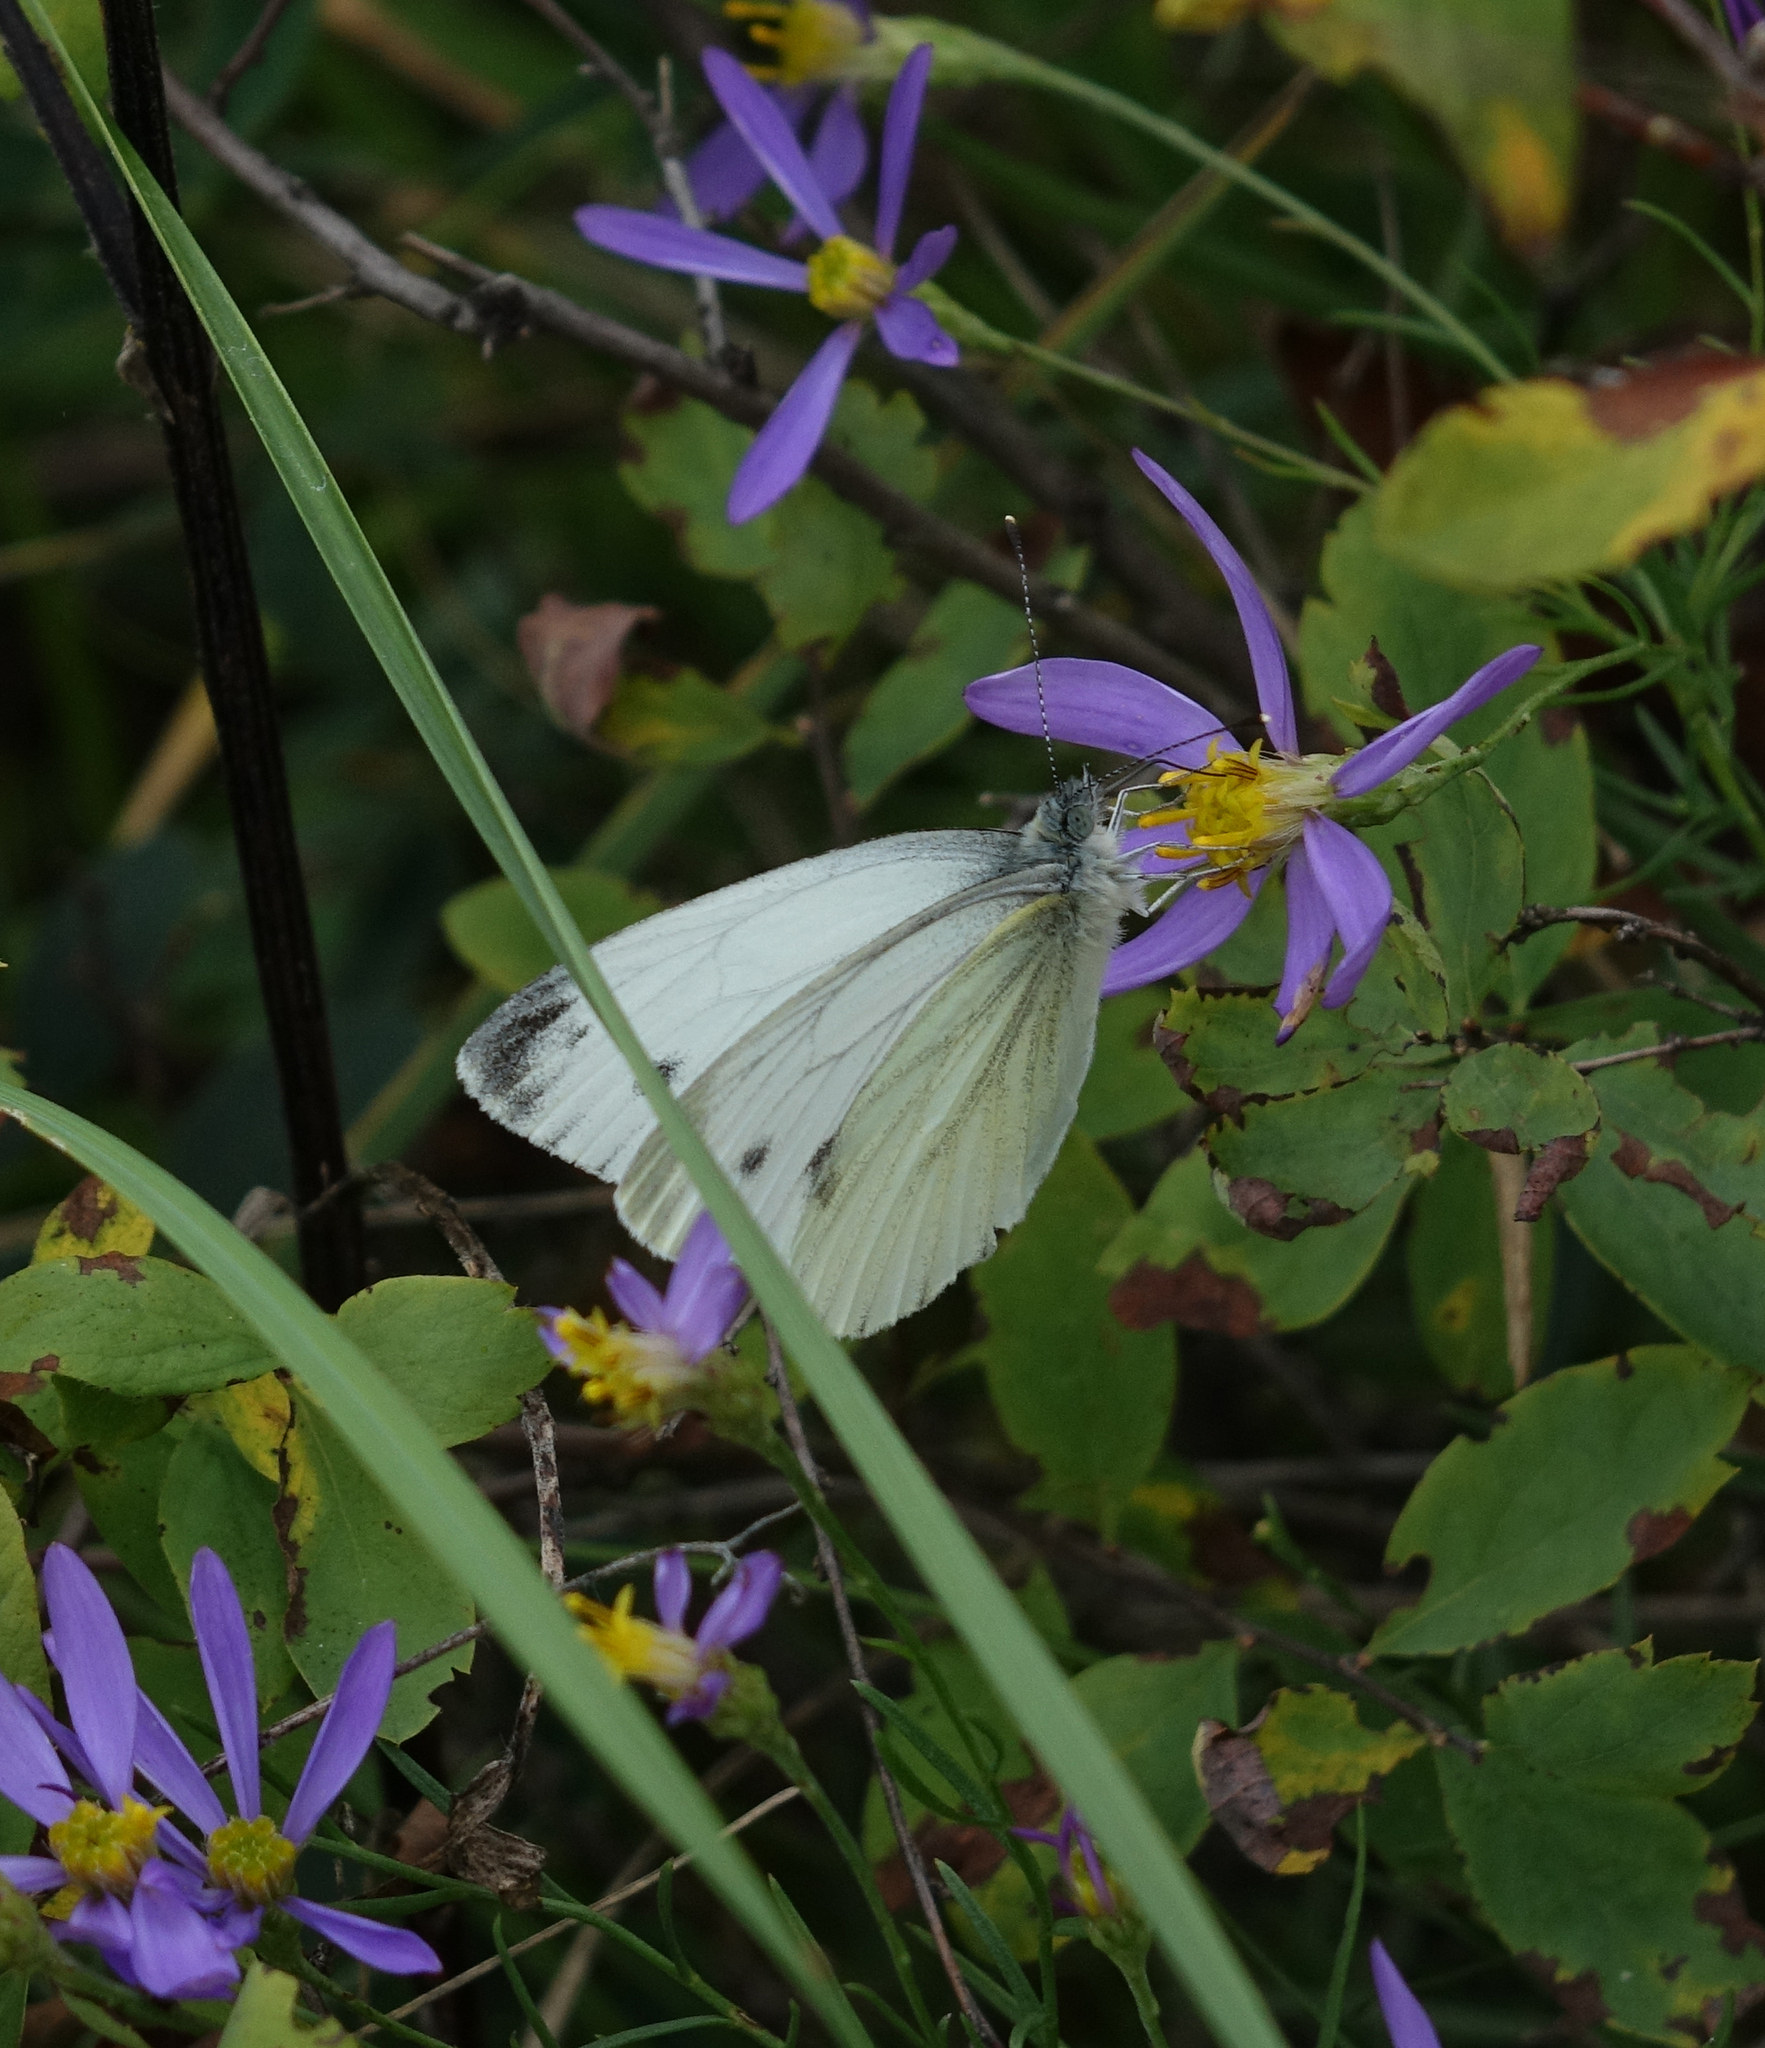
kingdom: Animalia
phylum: Arthropoda
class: Insecta
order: Lepidoptera
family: Pieridae
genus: Pieris
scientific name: Pieris napi
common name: Green-veined white
